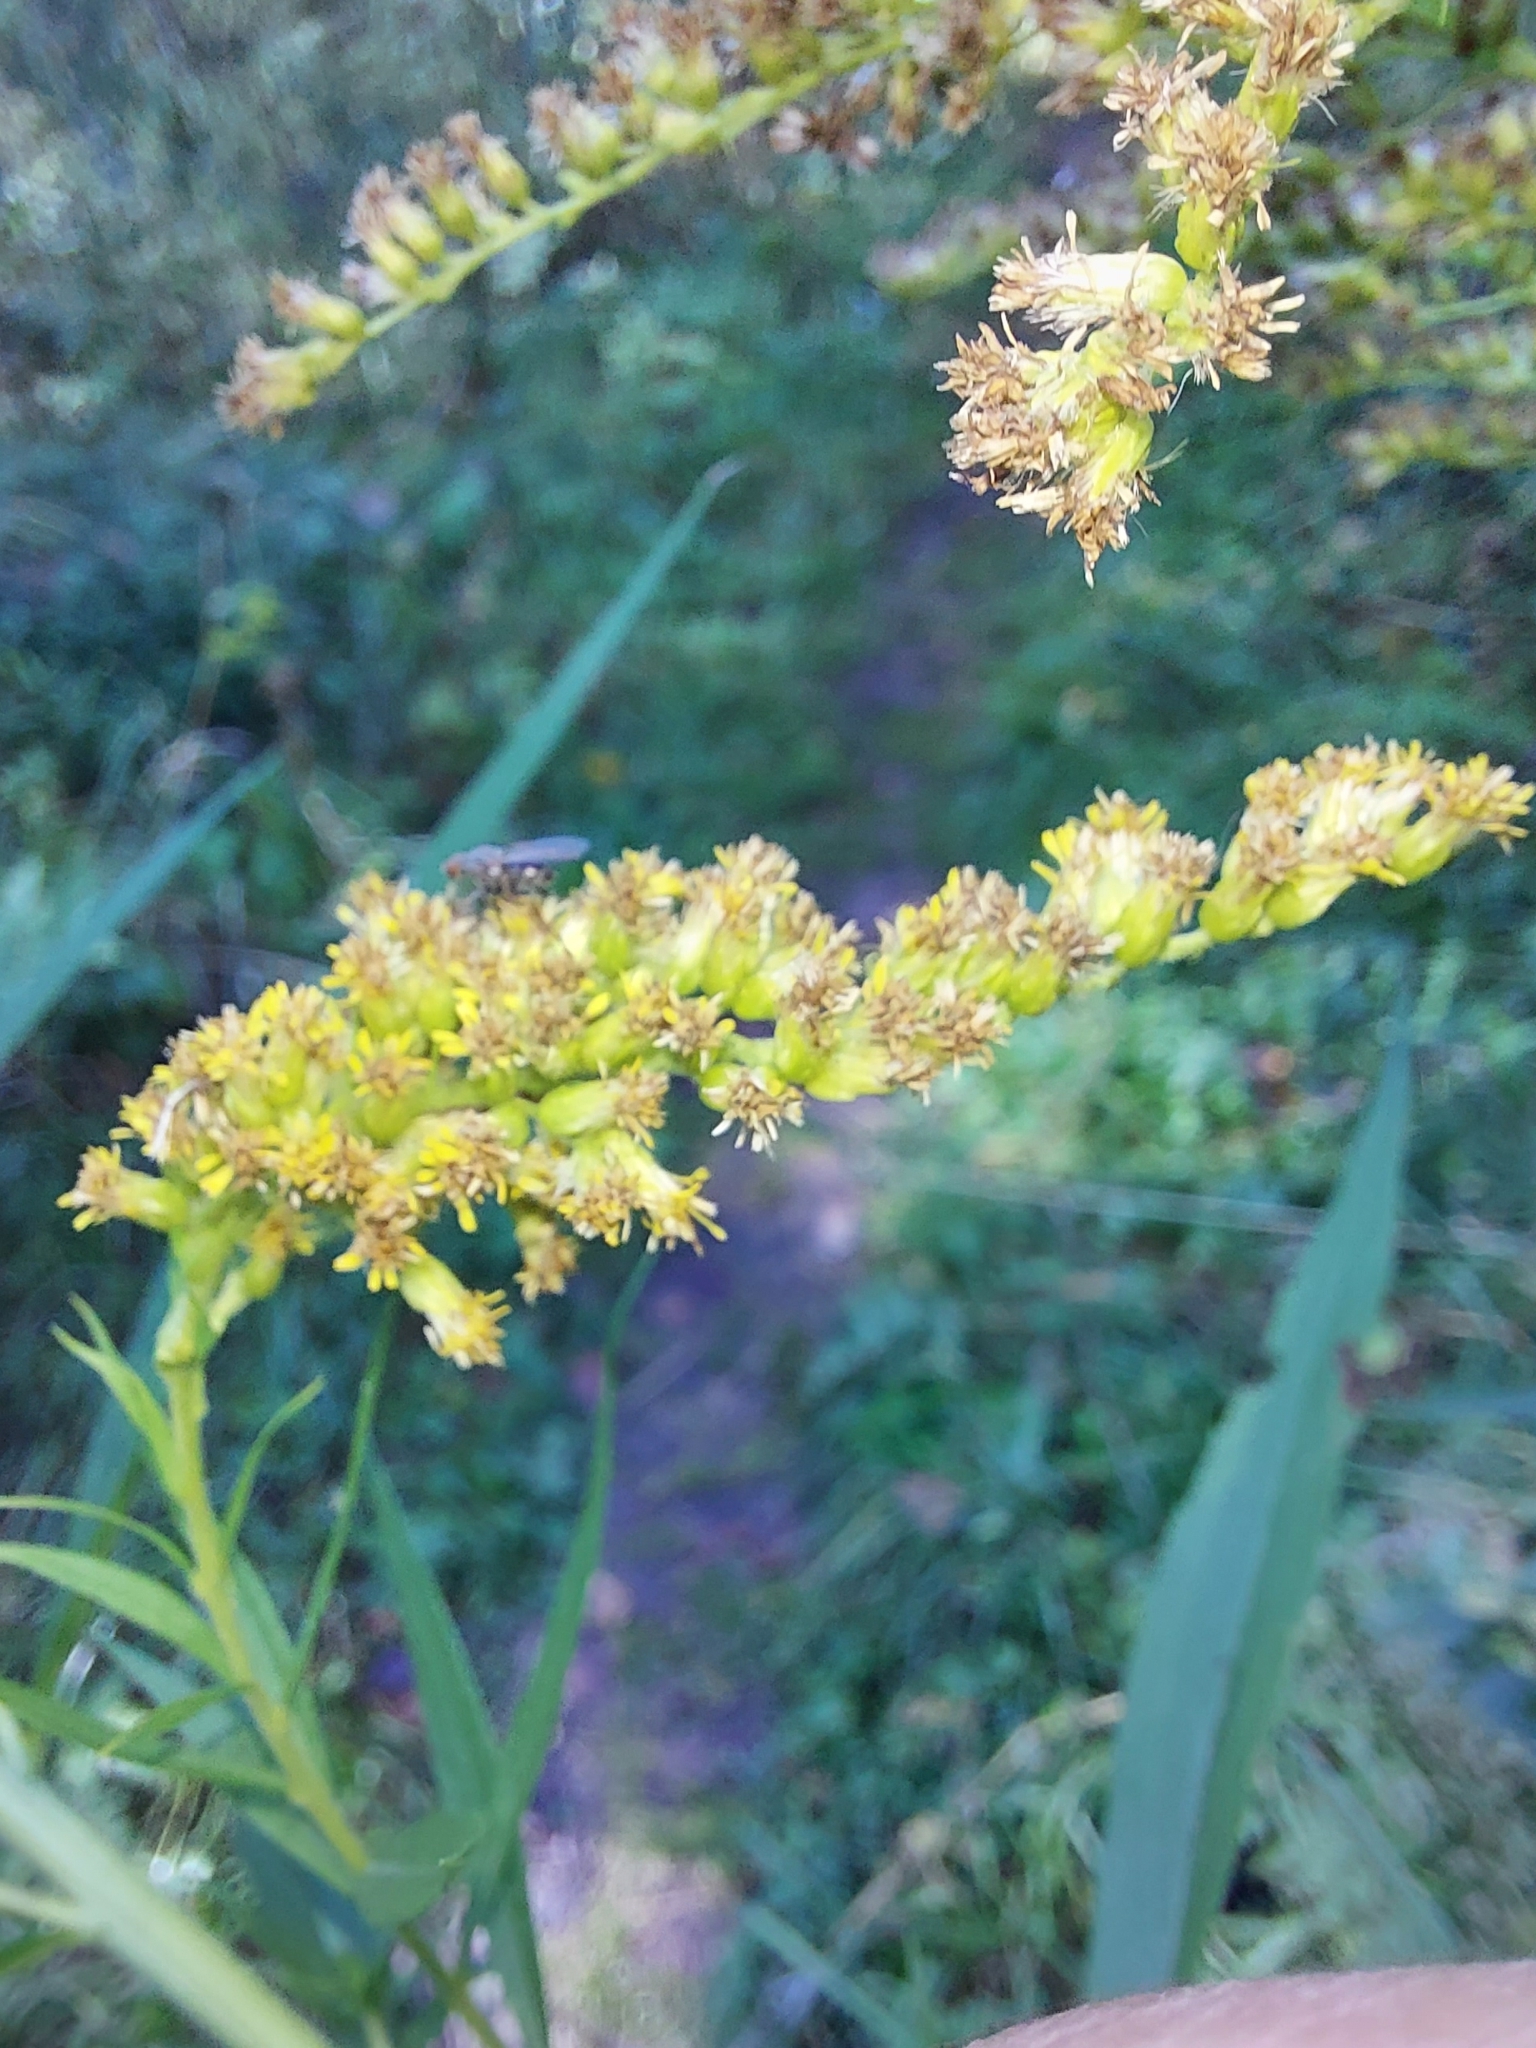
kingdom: Plantae
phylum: Tracheophyta
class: Magnoliopsida
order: Asterales
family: Asteraceae
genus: Solidago
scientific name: Solidago canadensis
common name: Canada goldenrod
